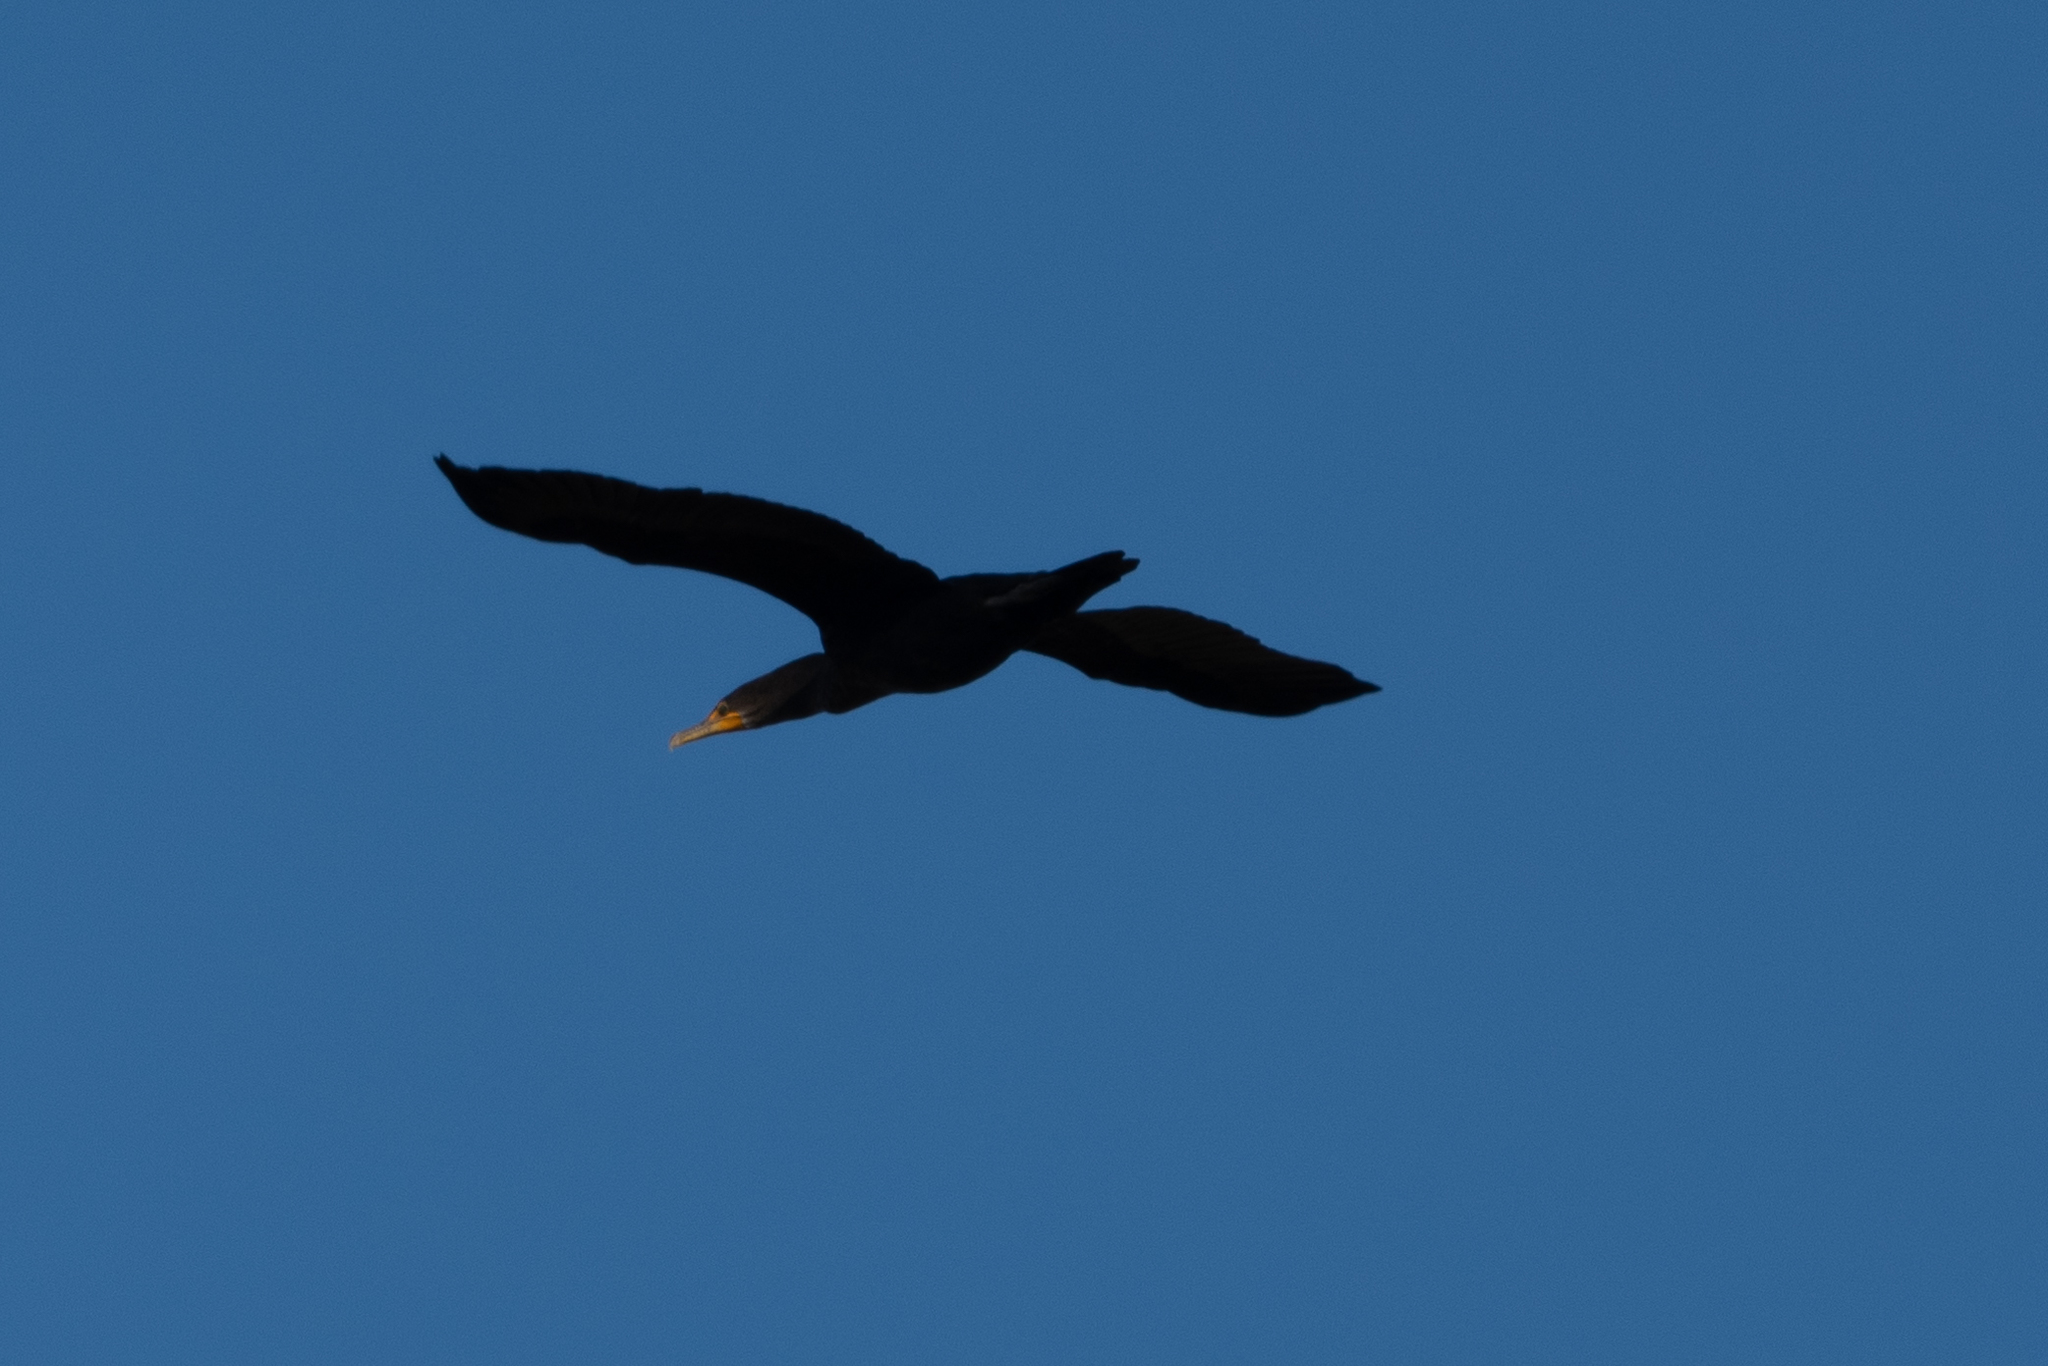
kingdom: Animalia
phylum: Chordata
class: Aves
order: Suliformes
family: Phalacrocoracidae
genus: Phalacrocorax
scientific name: Phalacrocorax auritus
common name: Double-crested cormorant
